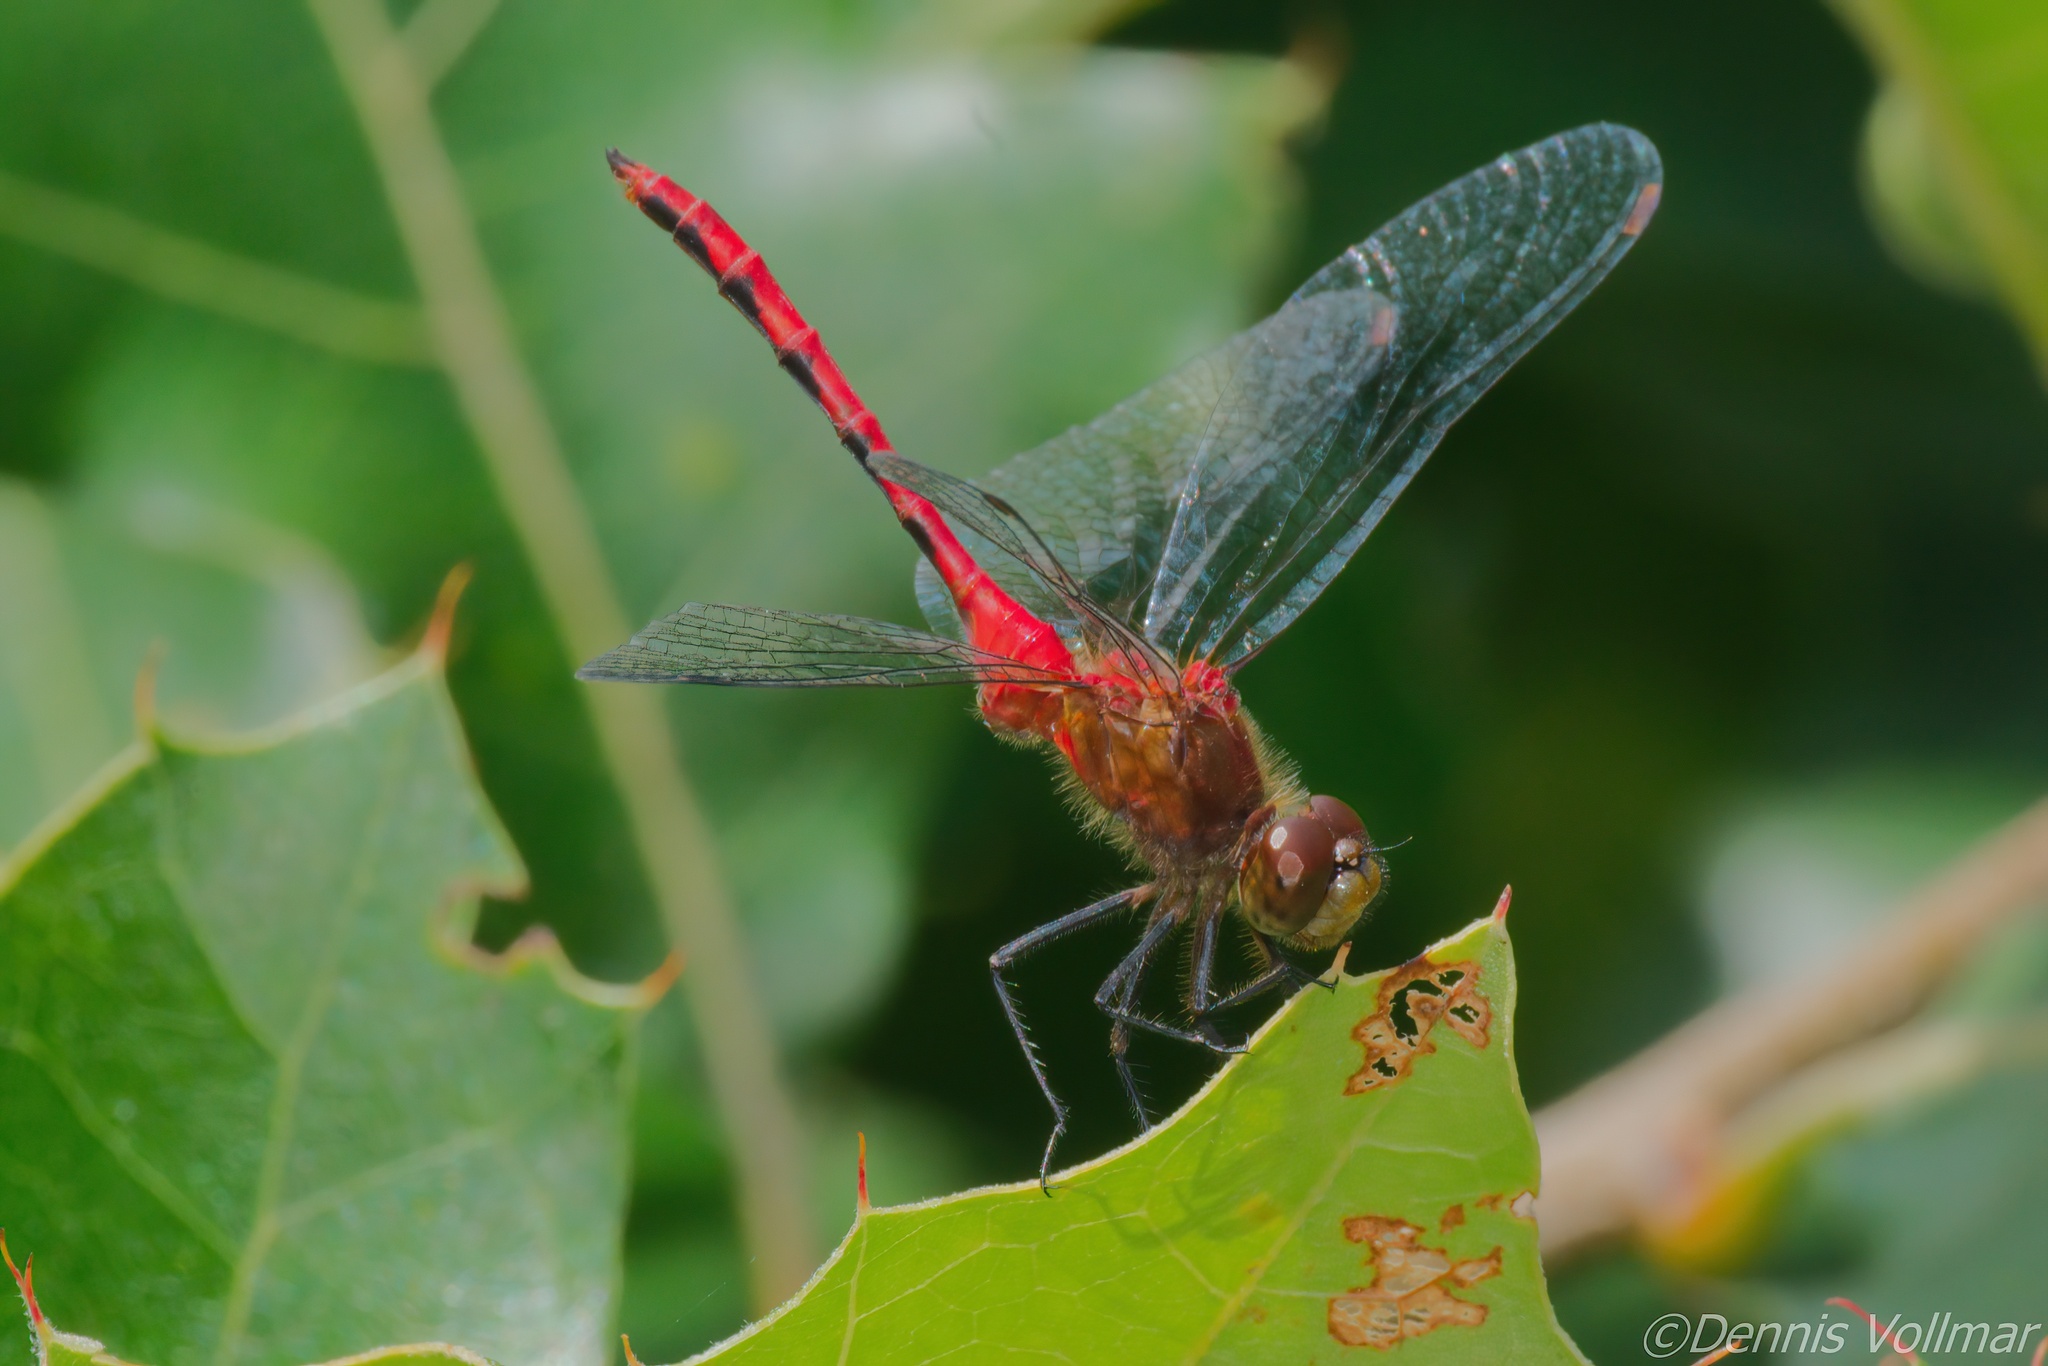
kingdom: Animalia
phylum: Arthropoda
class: Insecta
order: Odonata
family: Libellulidae
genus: Sympetrum
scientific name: Sympetrum
